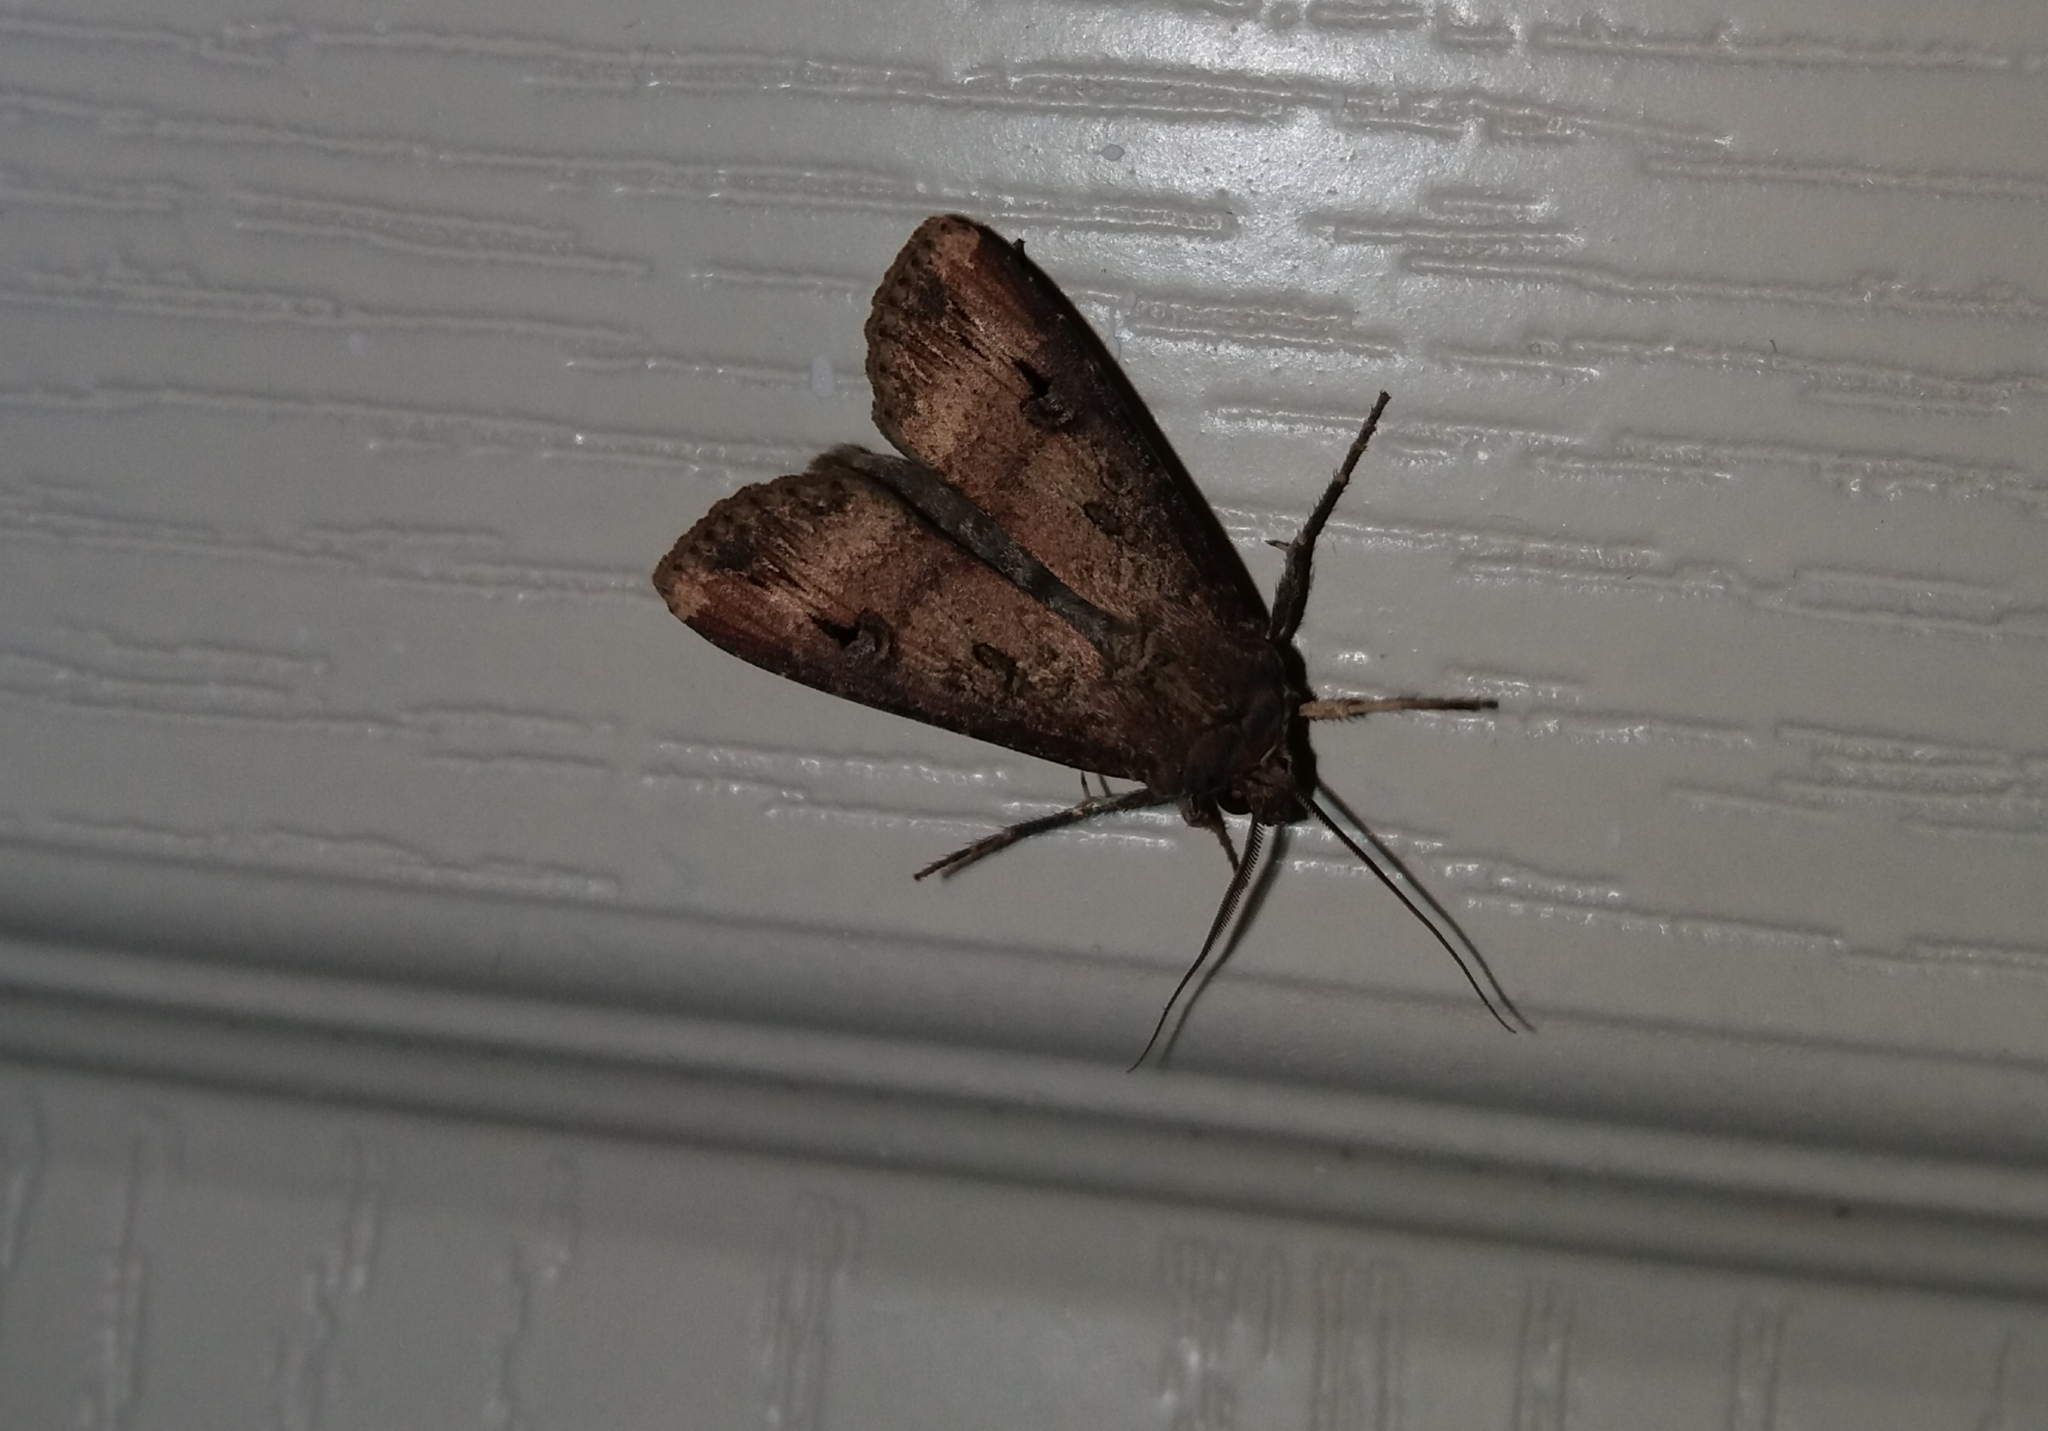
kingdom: Animalia
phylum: Arthropoda
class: Insecta
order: Lepidoptera
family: Noctuidae
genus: Agrotis
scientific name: Agrotis ipsilon
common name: Dark sword-grass
